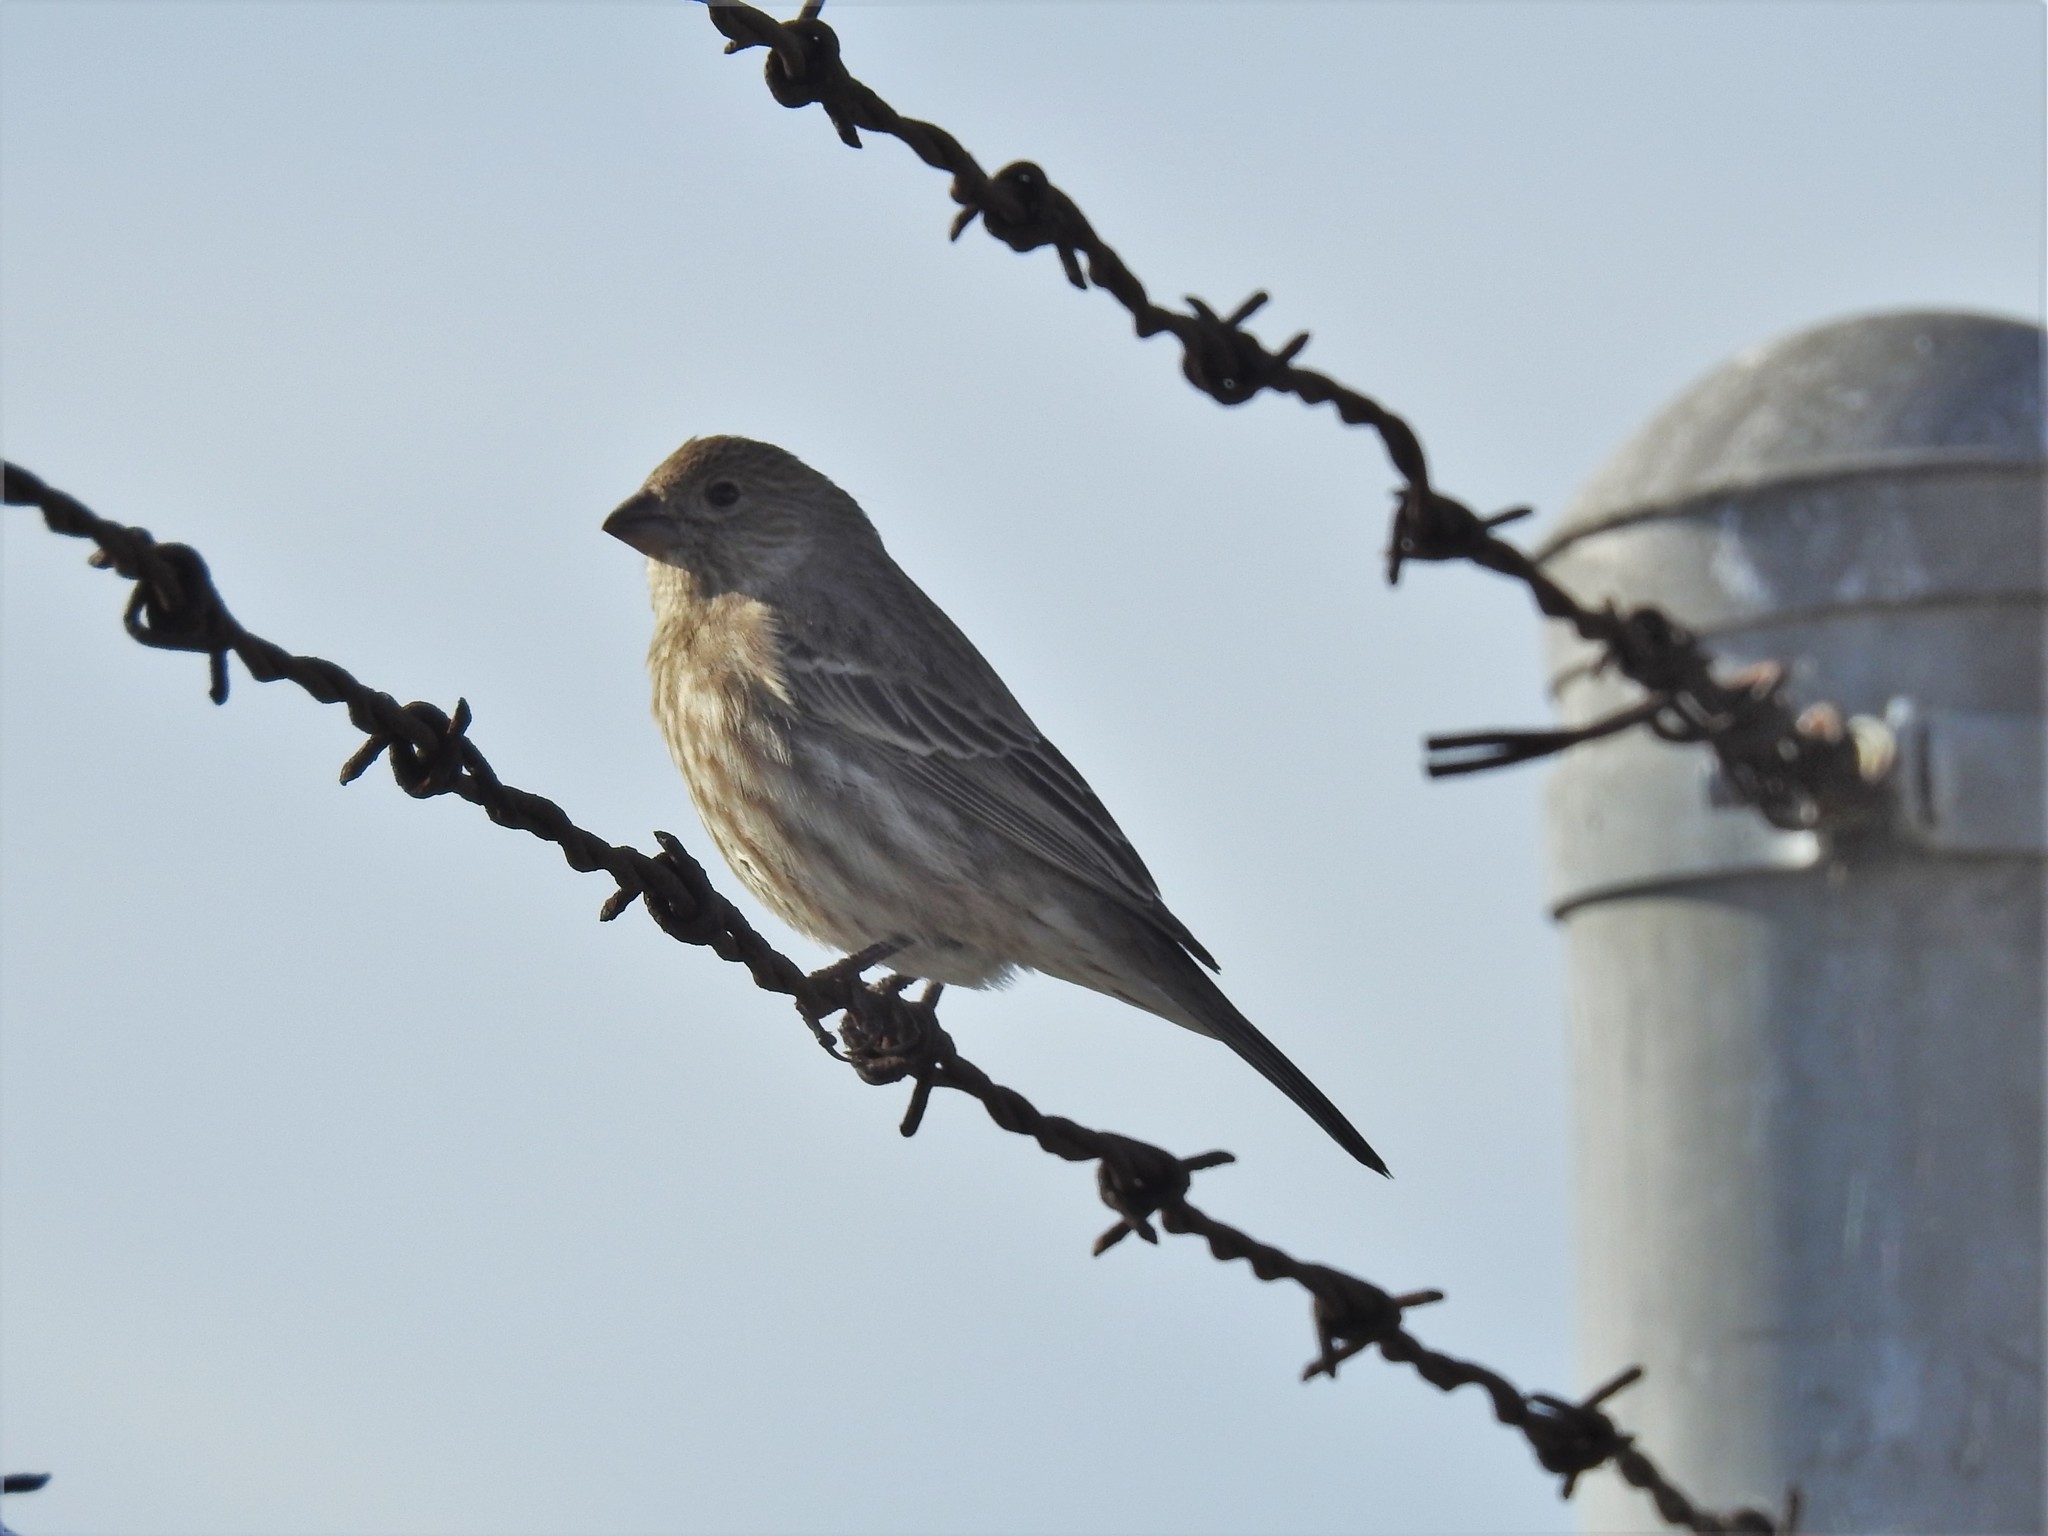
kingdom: Animalia
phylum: Chordata
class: Aves
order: Passeriformes
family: Fringillidae
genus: Haemorhous
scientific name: Haemorhous mexicanus
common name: House finch
